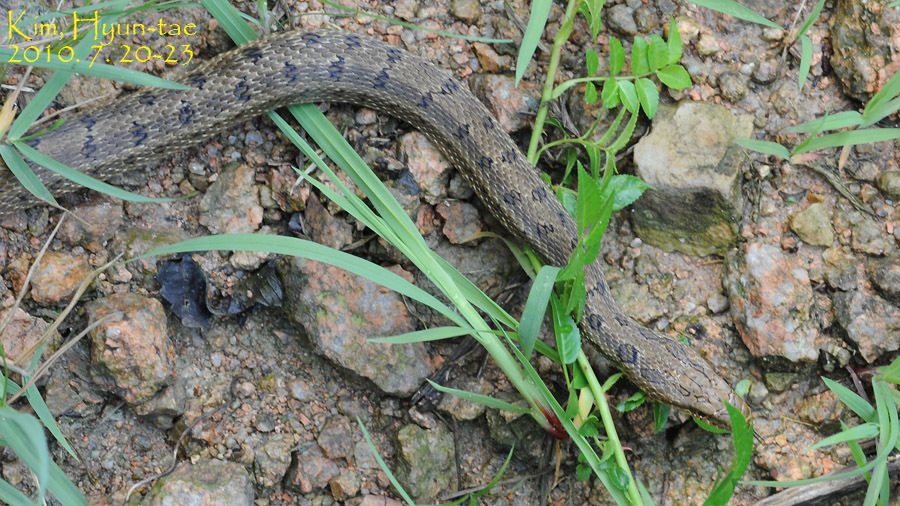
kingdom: Animalia
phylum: Chordata
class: Squamata
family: Colubridae
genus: Elaphe
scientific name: Elaphe dione
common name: Dione ratsnake
